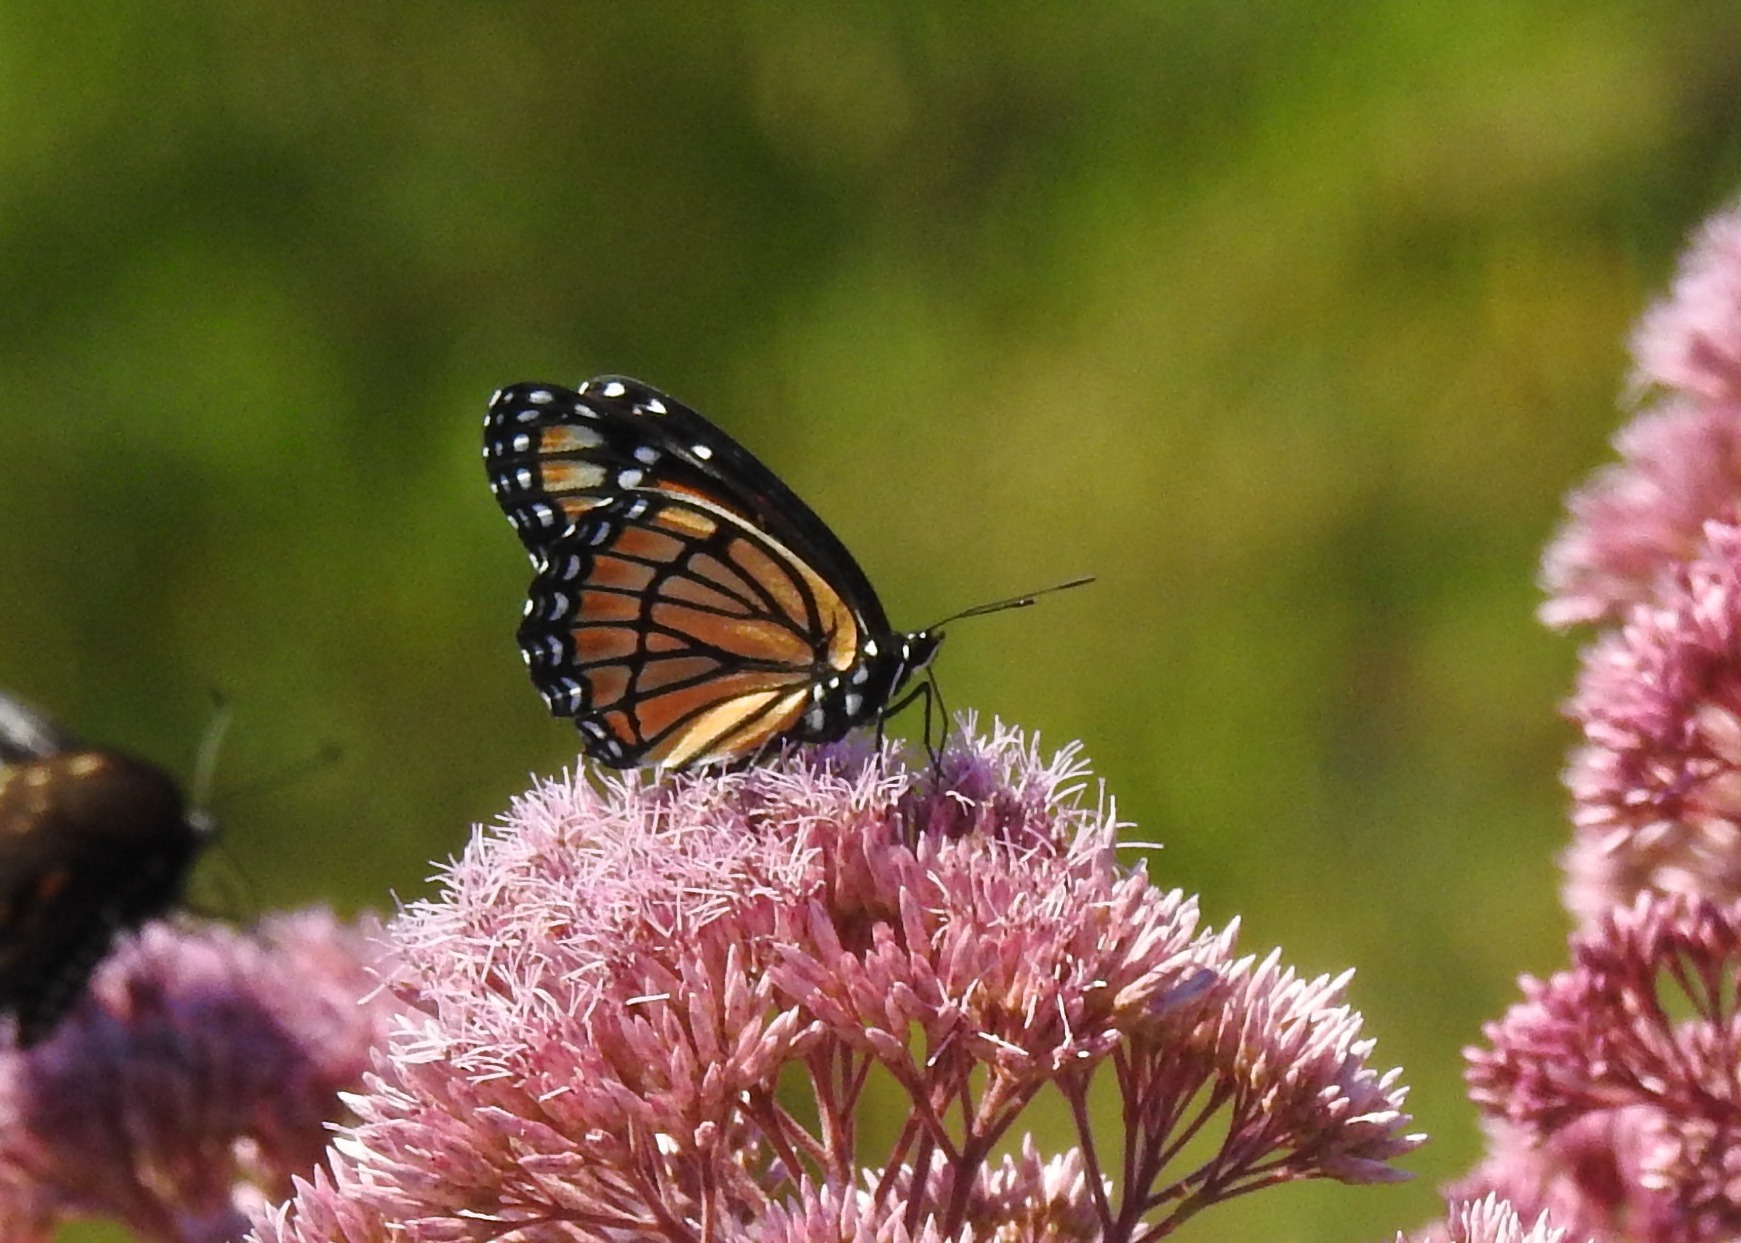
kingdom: Animalia
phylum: Arthropoda
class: Insecta
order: Lepidoptera
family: Nymphalidae
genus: Limenitis
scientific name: Limenitis archippus
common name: Viceroy
